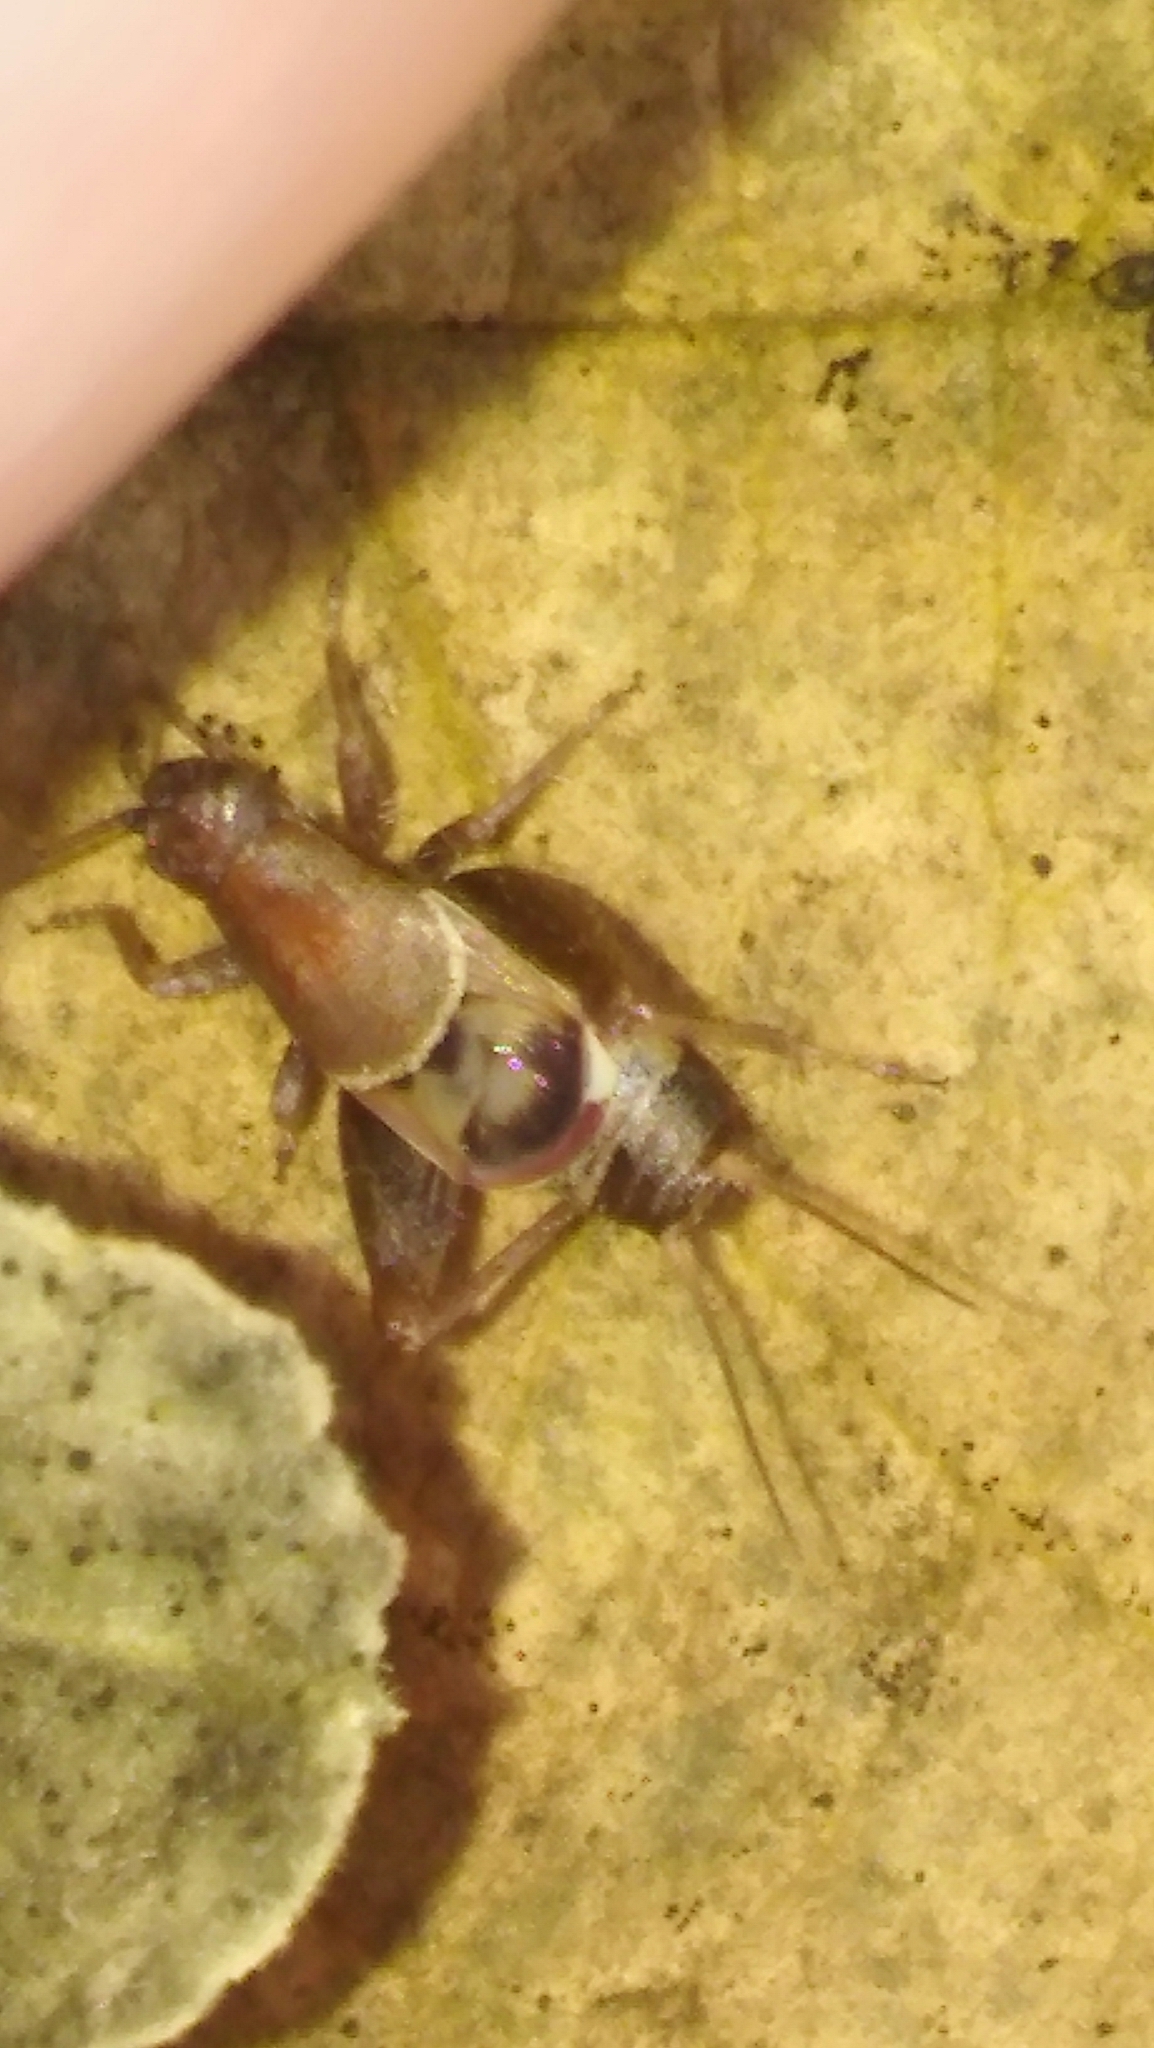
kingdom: Animalia
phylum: Arthropoda
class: Insecta
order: Orthoptera
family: Mogoplistidae
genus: Ornebius
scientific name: Ornebius alatus
